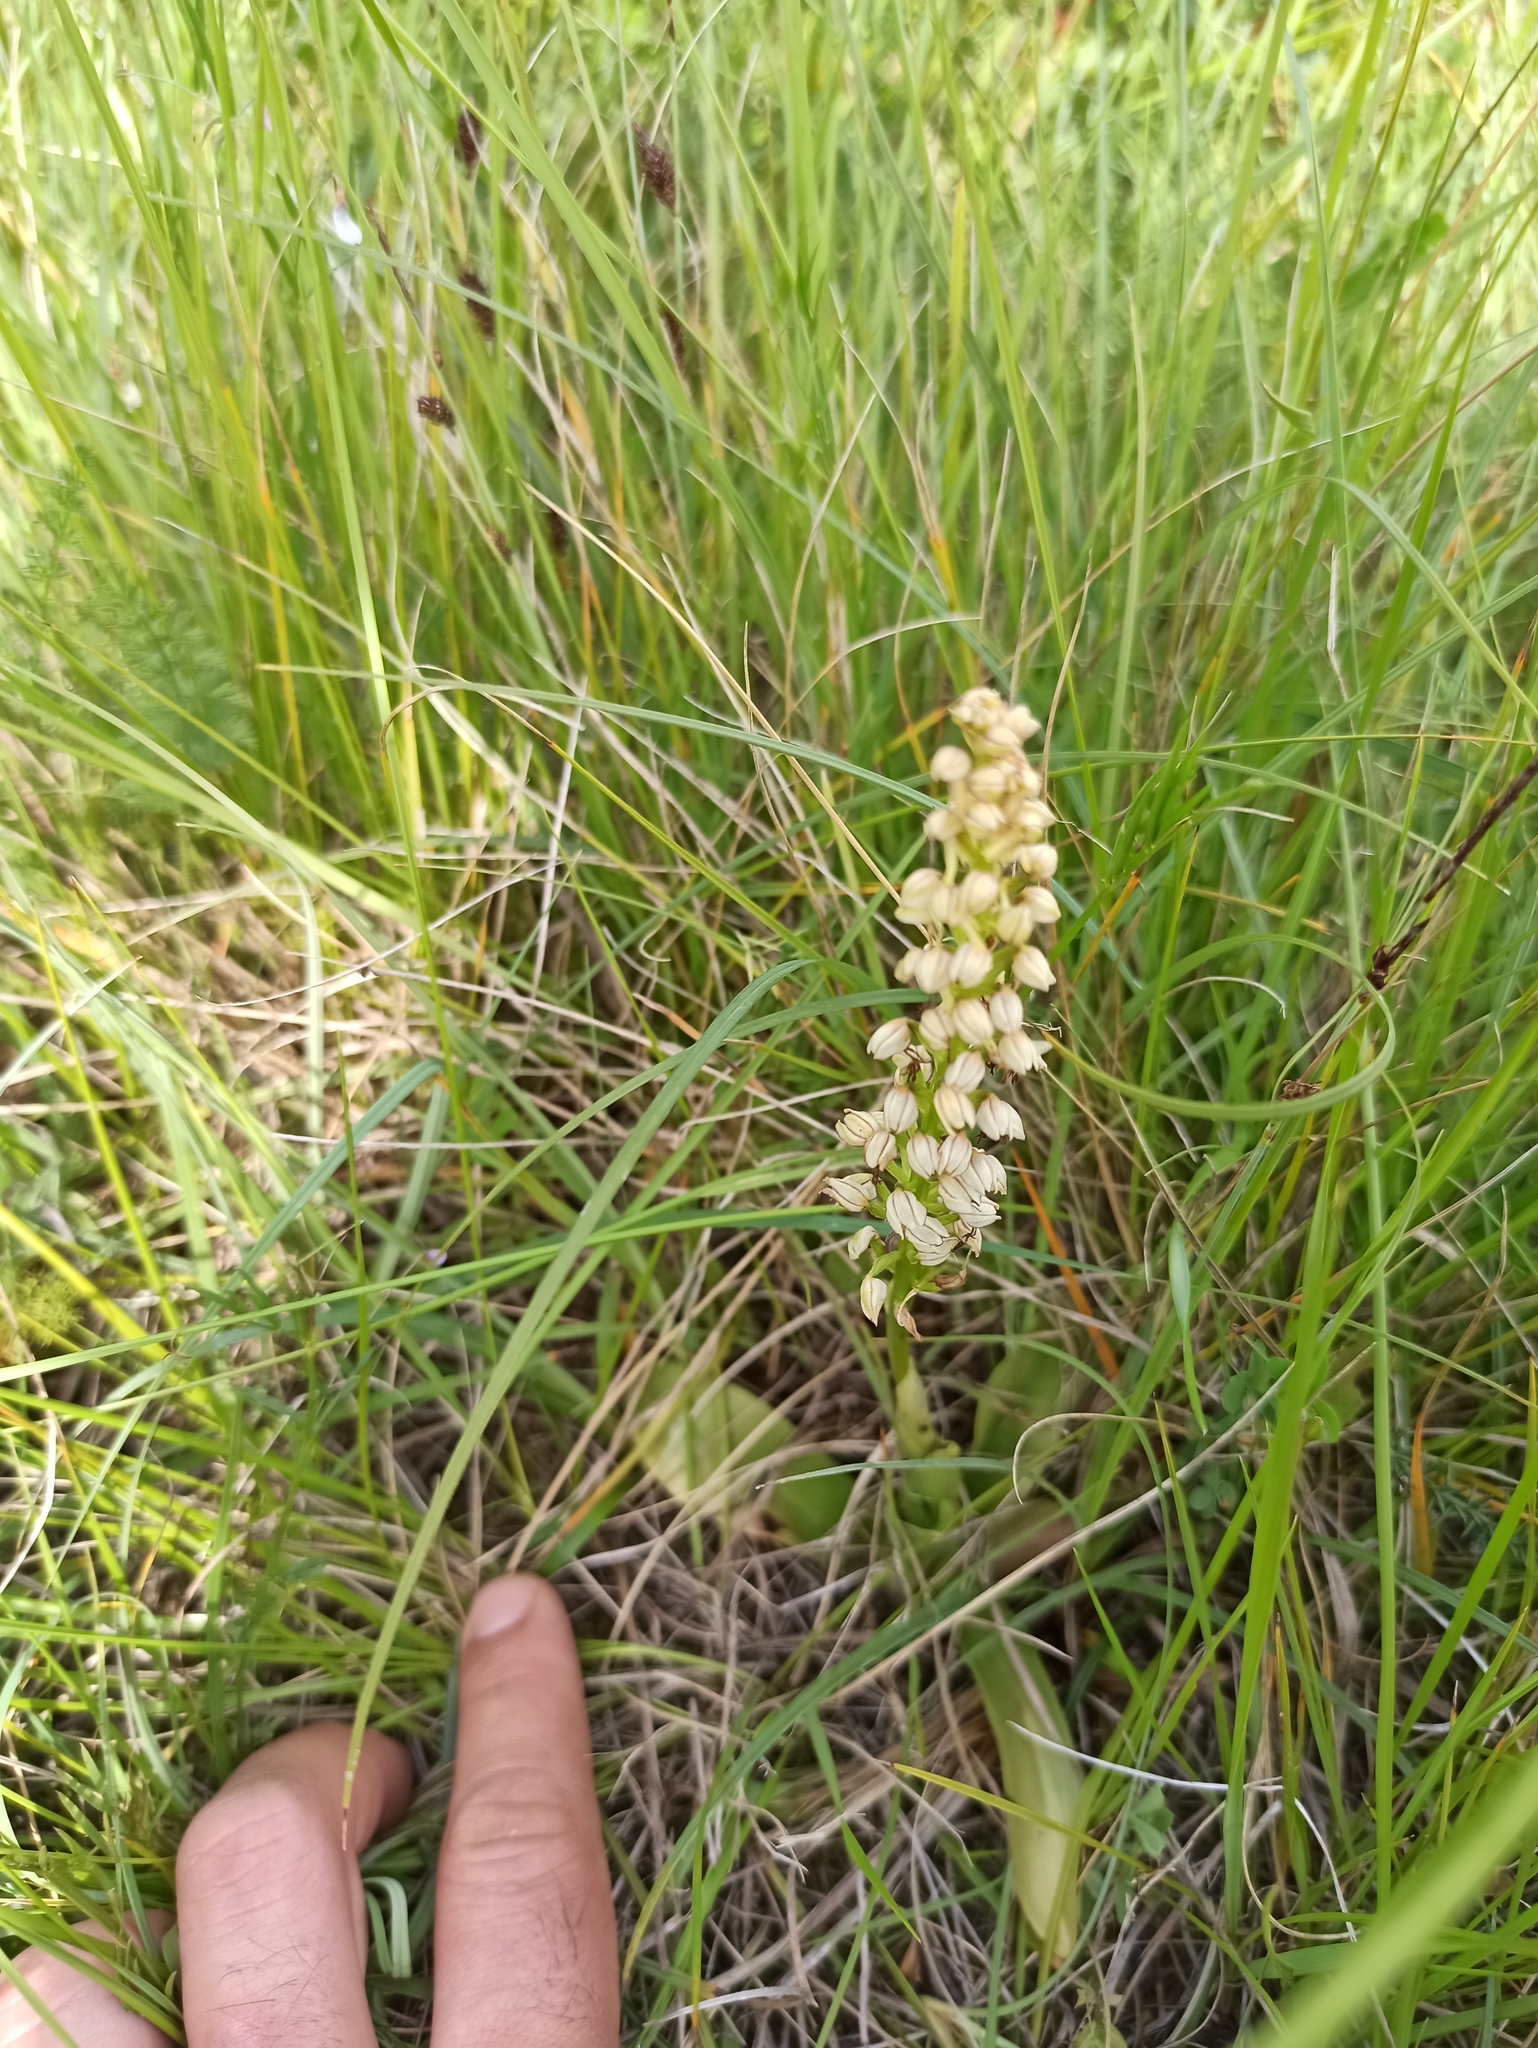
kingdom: Plantae
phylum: Tracheophyta
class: Liliopsida
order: Asparagales
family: Orchidaceae
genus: Orchis
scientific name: Orchis anthropophora
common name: Man orchid
